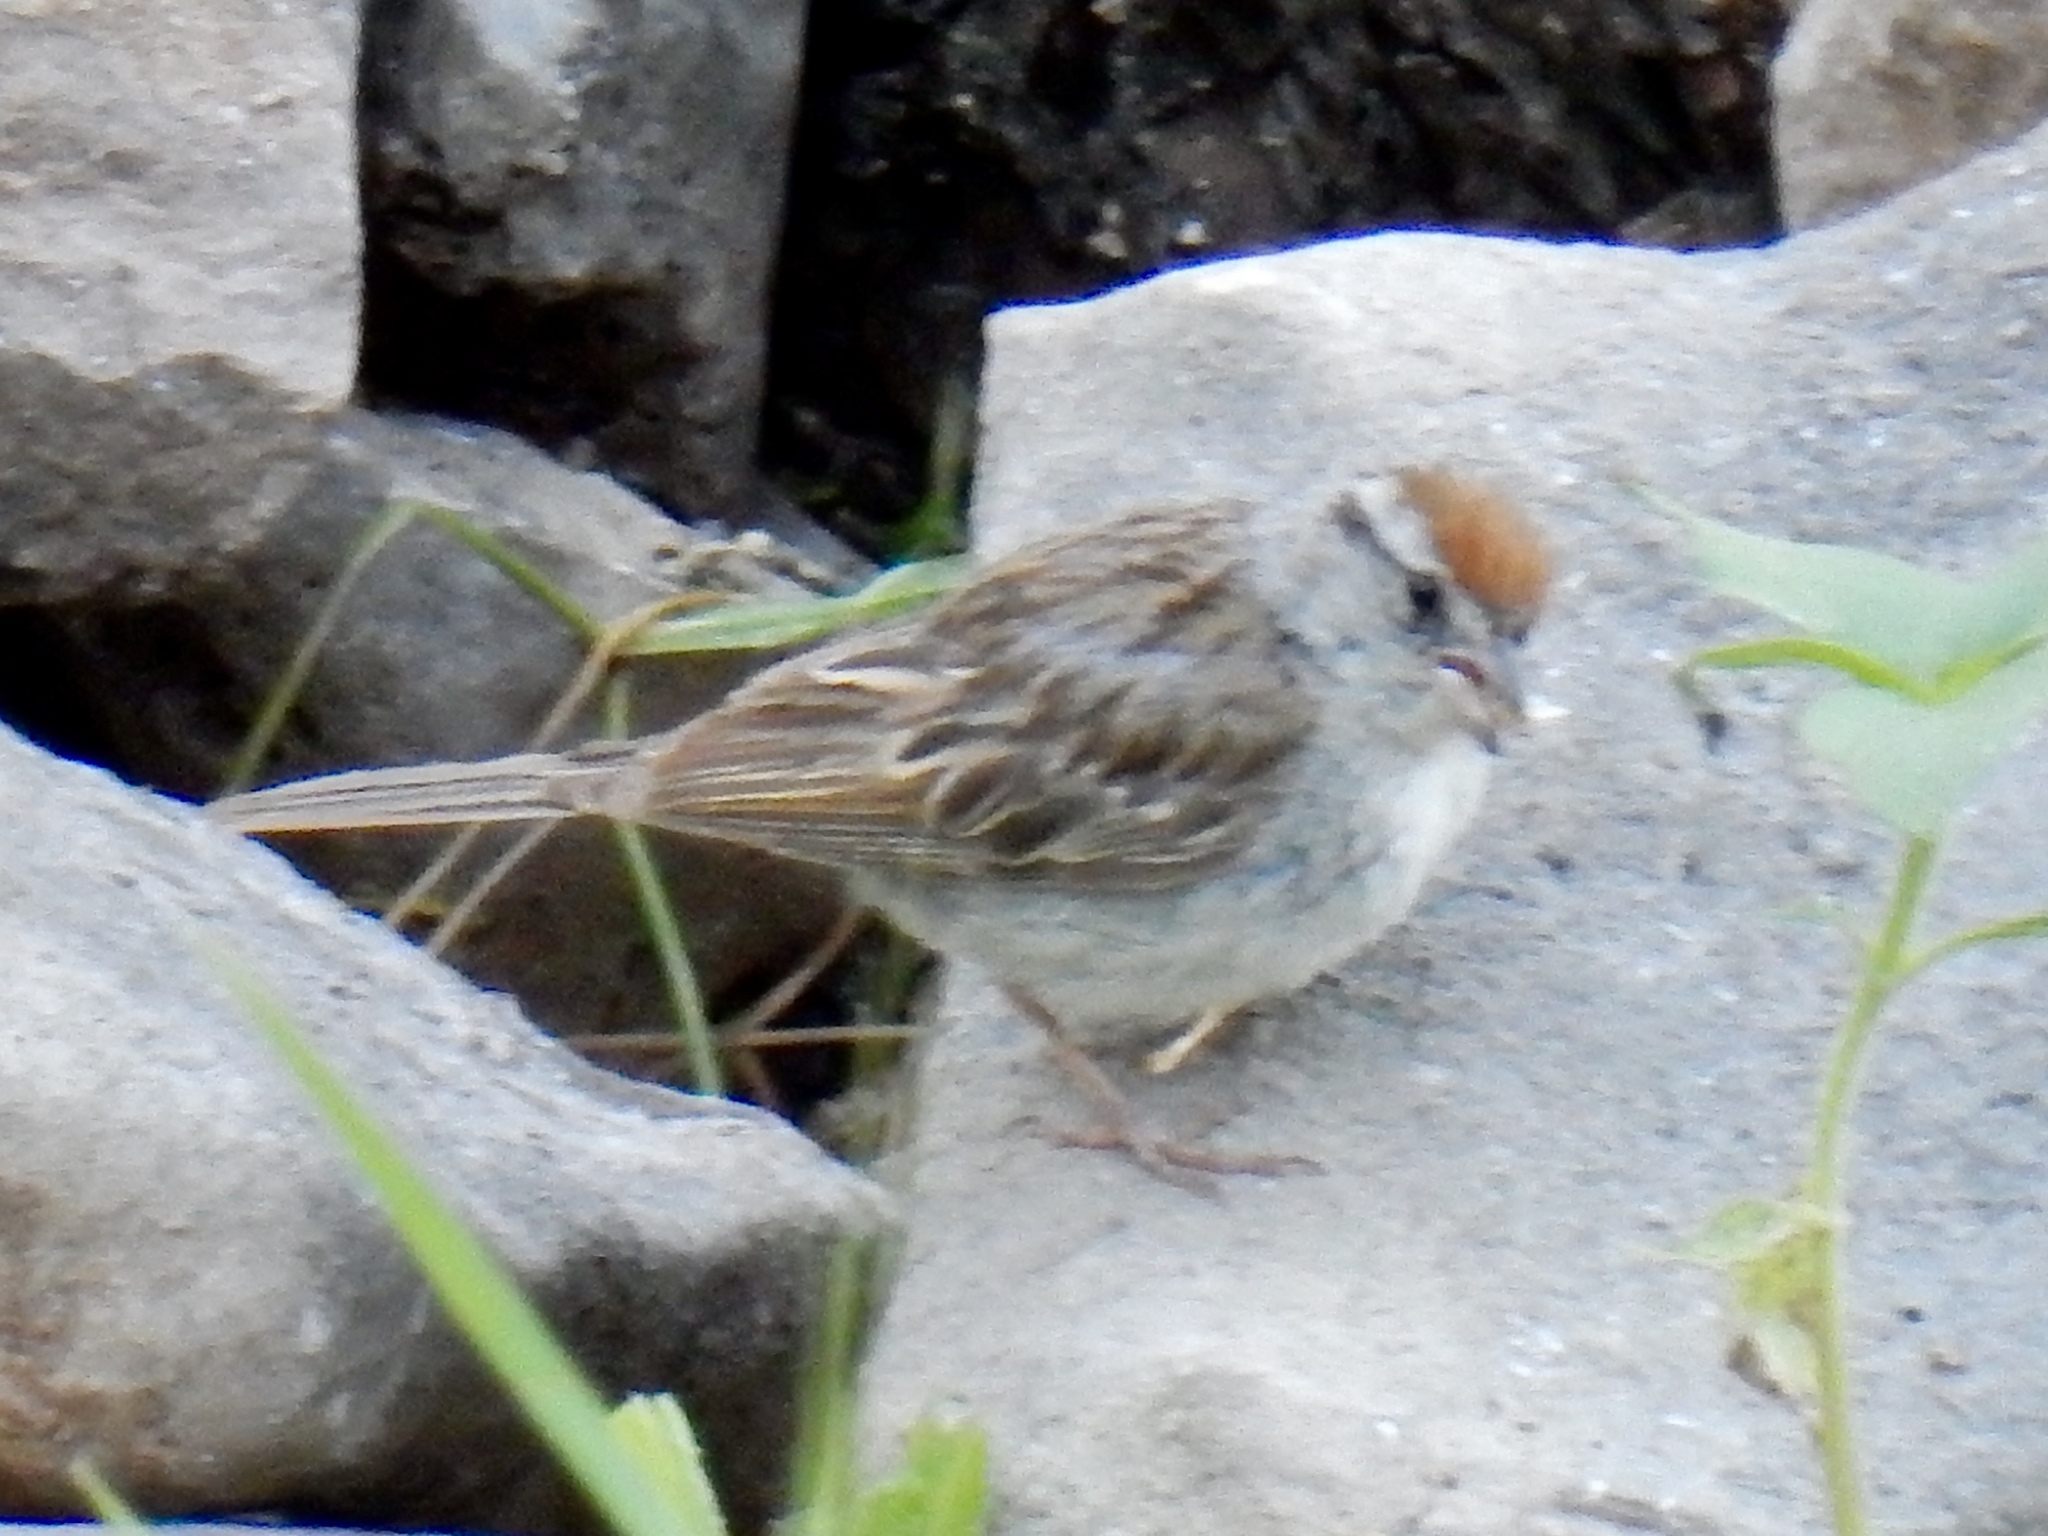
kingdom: Animalia
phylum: Chordata
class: Aves
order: Passeriformes
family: Passerellidae
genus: Spizella
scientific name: Spizella passerina
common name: Chipping sparrow
